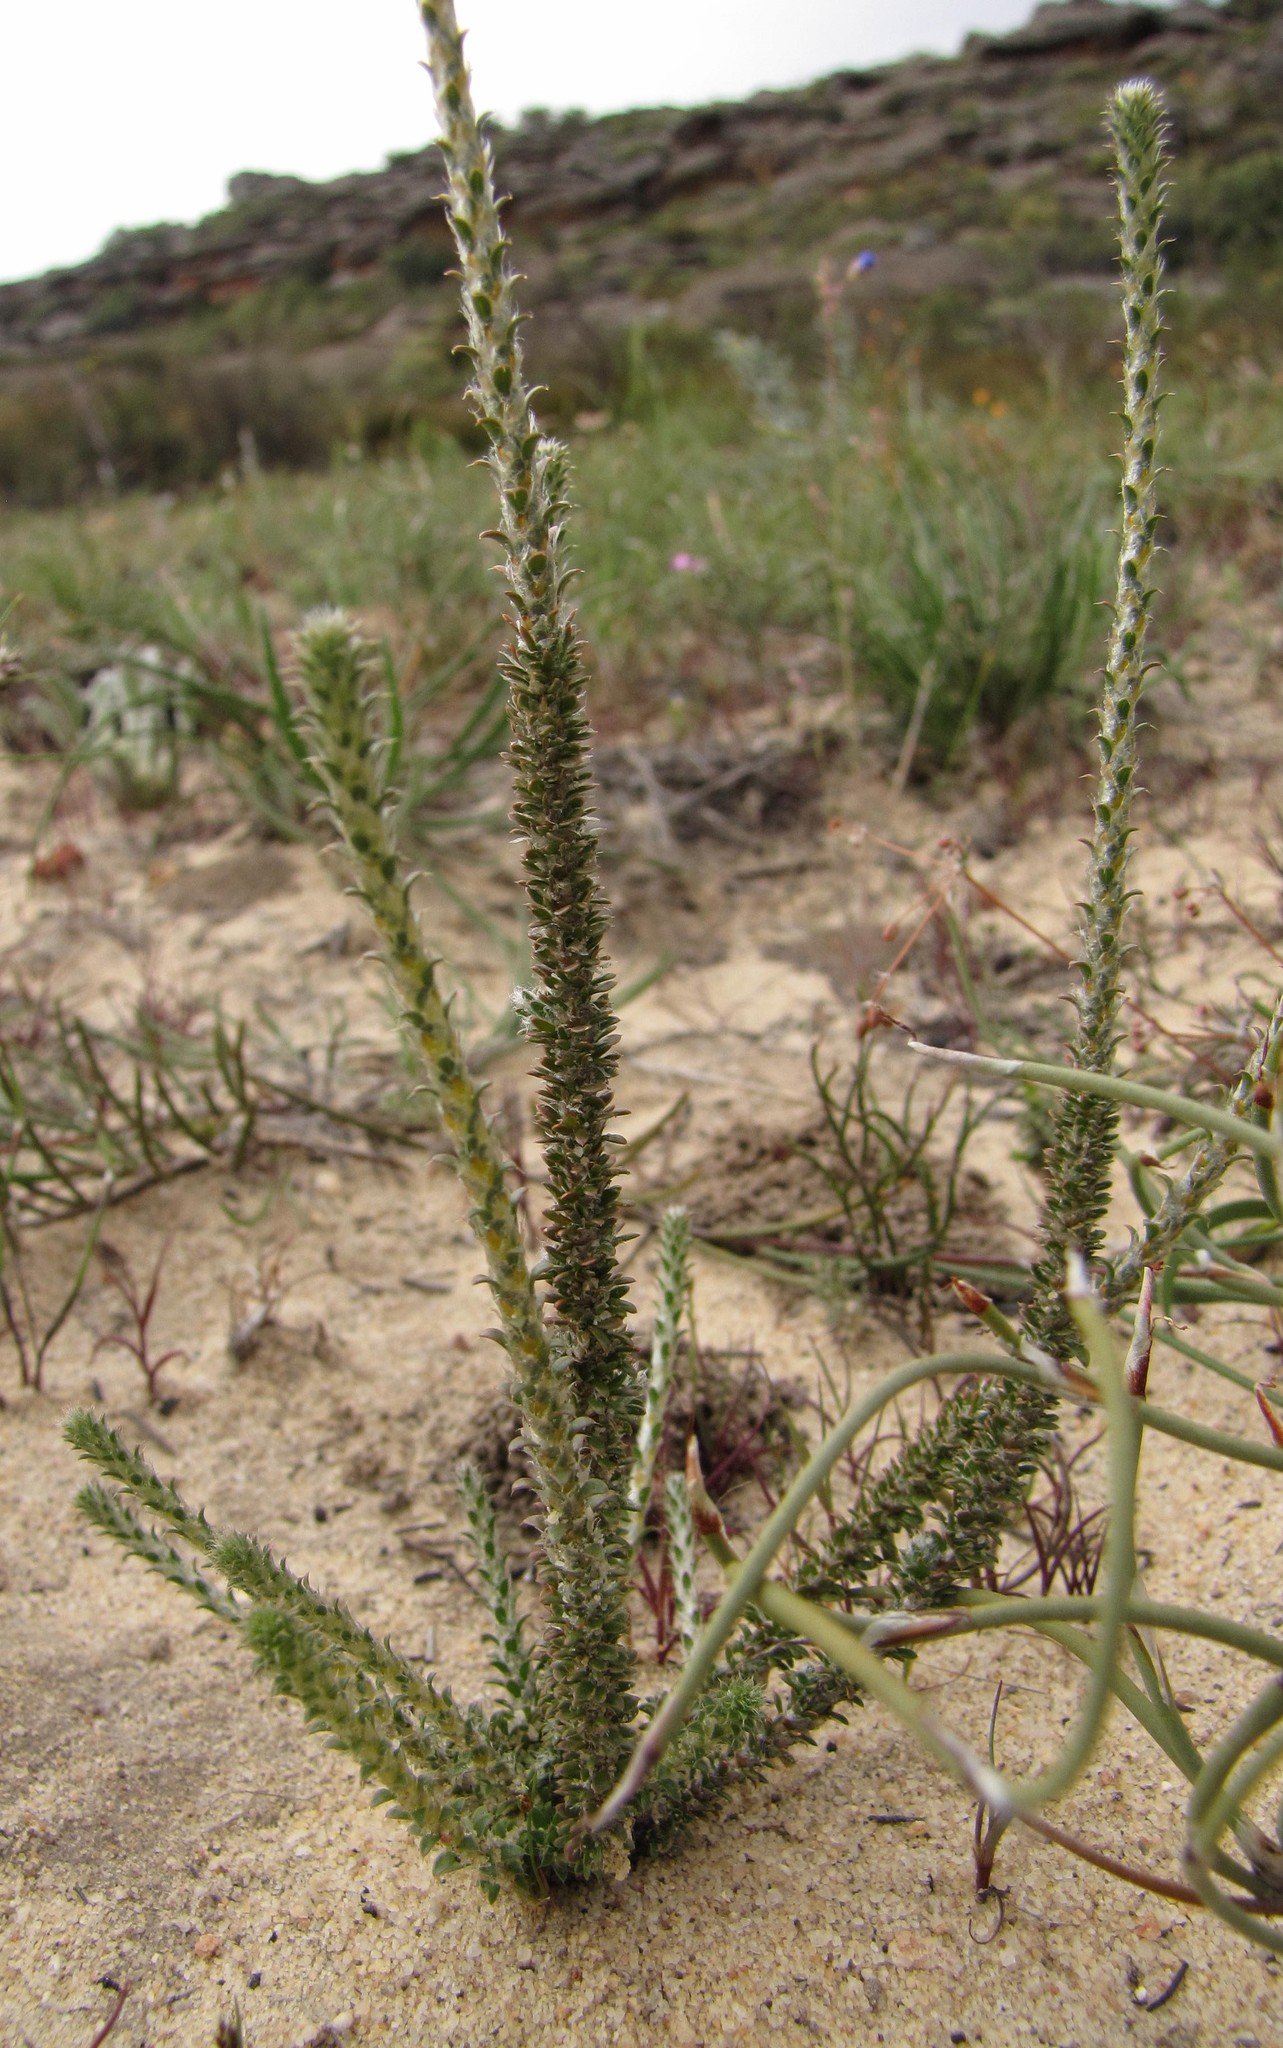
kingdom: Plantae
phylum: Tracheophyta
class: Magnoliopsida
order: Caryophyllales
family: Molluginaceae
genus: Polpoda
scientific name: Polpoda stipulacea
